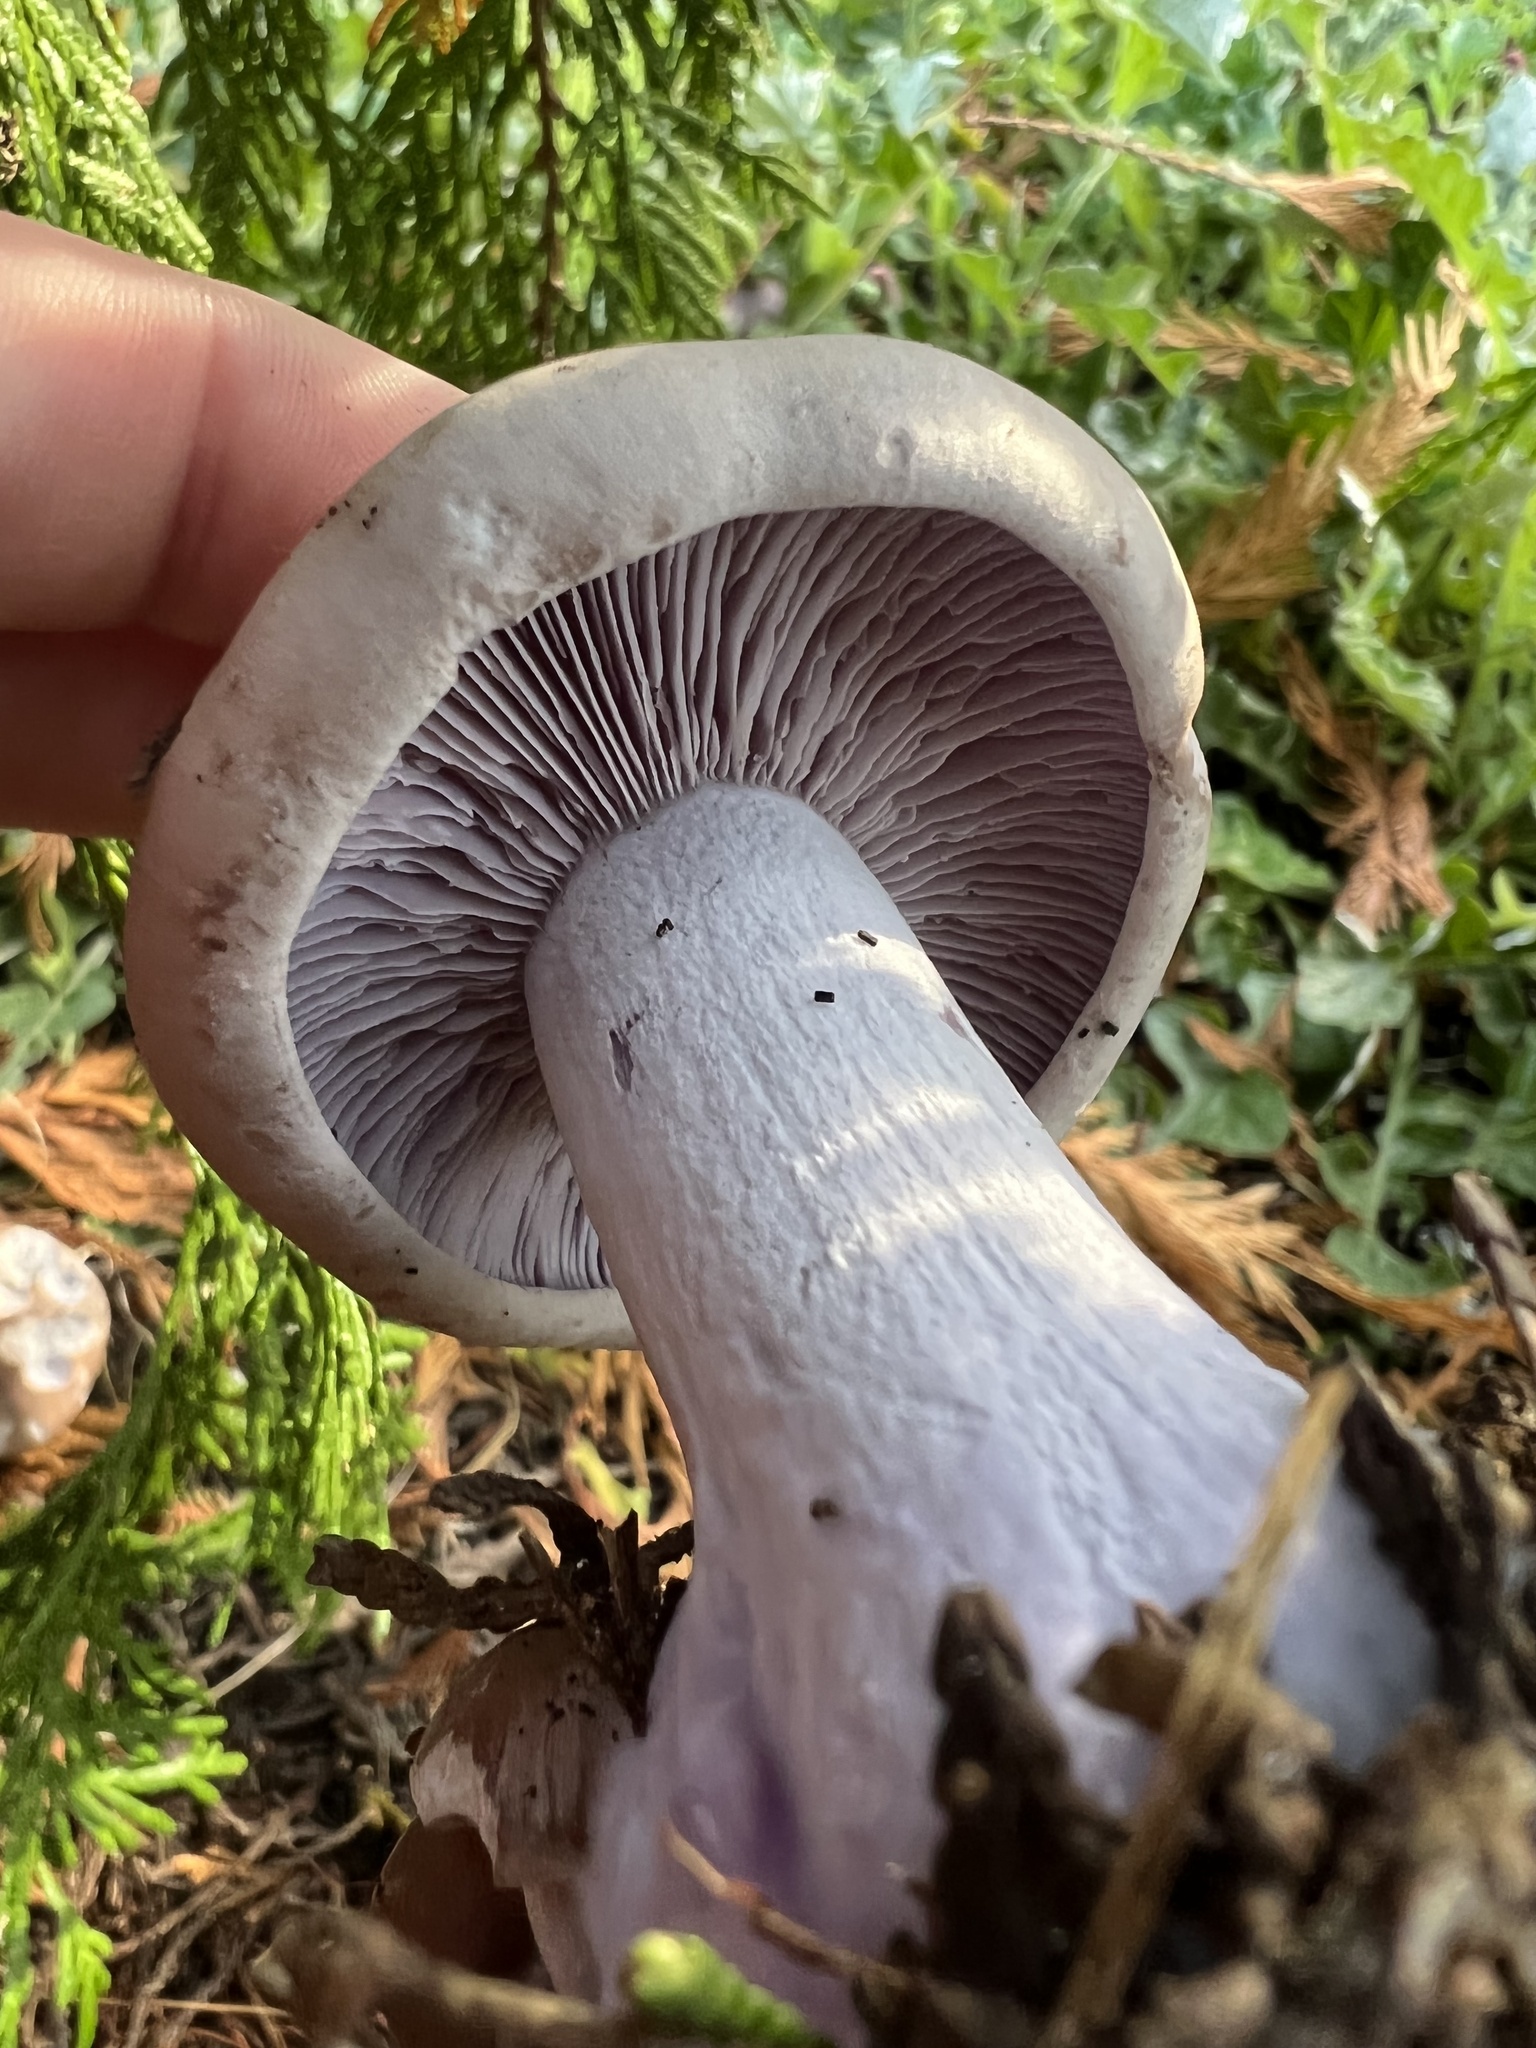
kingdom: Fungi
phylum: Basidiomycota
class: Agaricomycetes
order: Agaricales
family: Tricholomataceae
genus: Collybia
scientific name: Collybia
